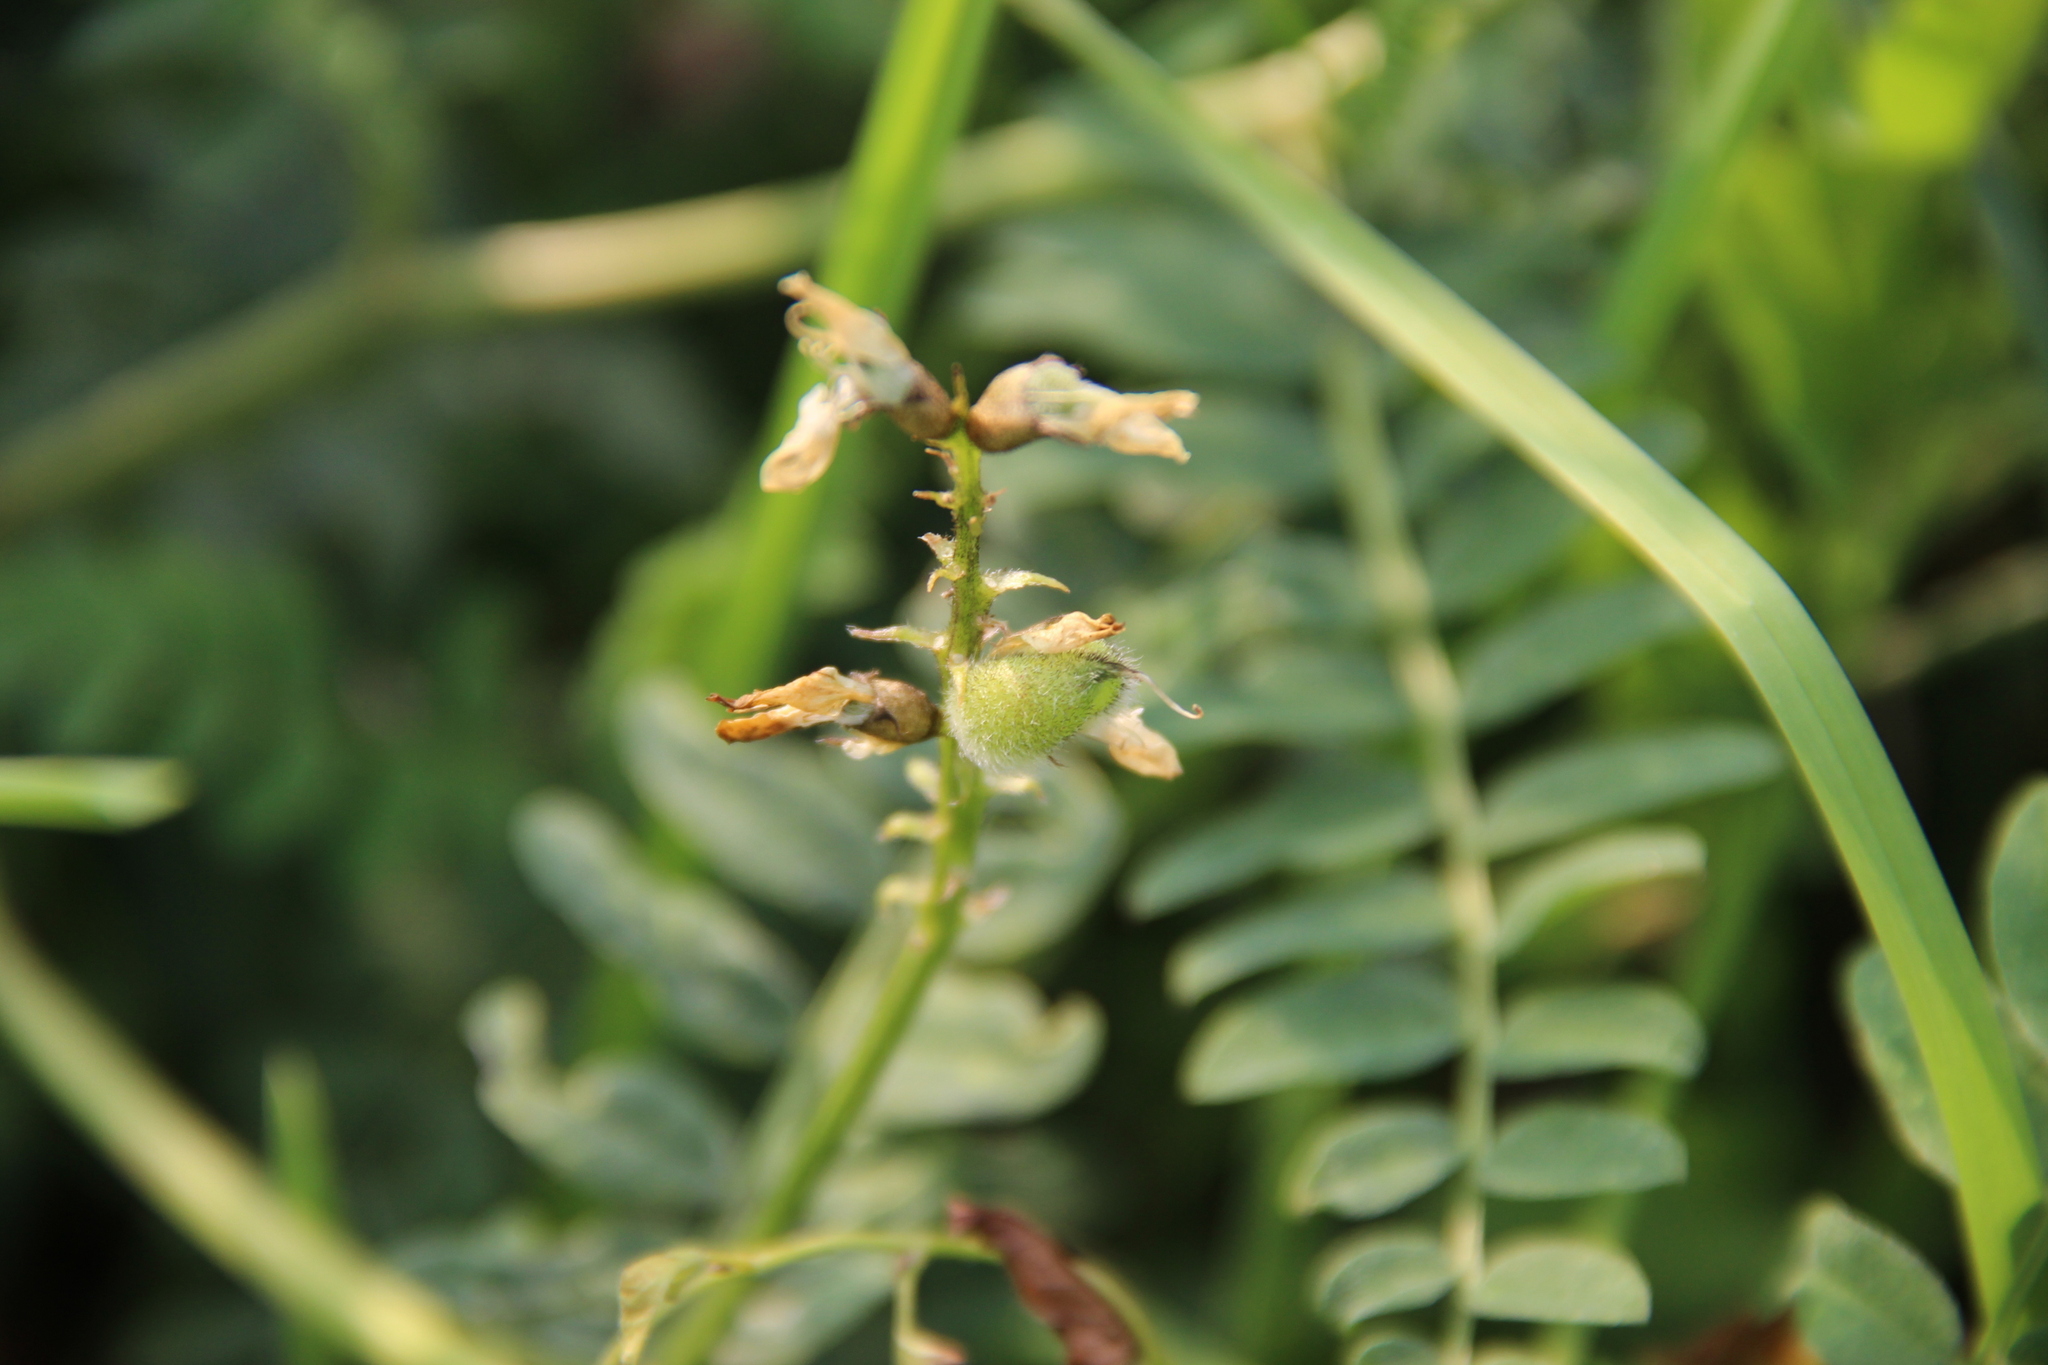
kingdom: Plantae
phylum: Tracheophyta
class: Magnoliopsida
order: Fabales
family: Fabaceae
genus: Astragalus
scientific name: Astragalus cicer
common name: Chick-pea milk-vetch
